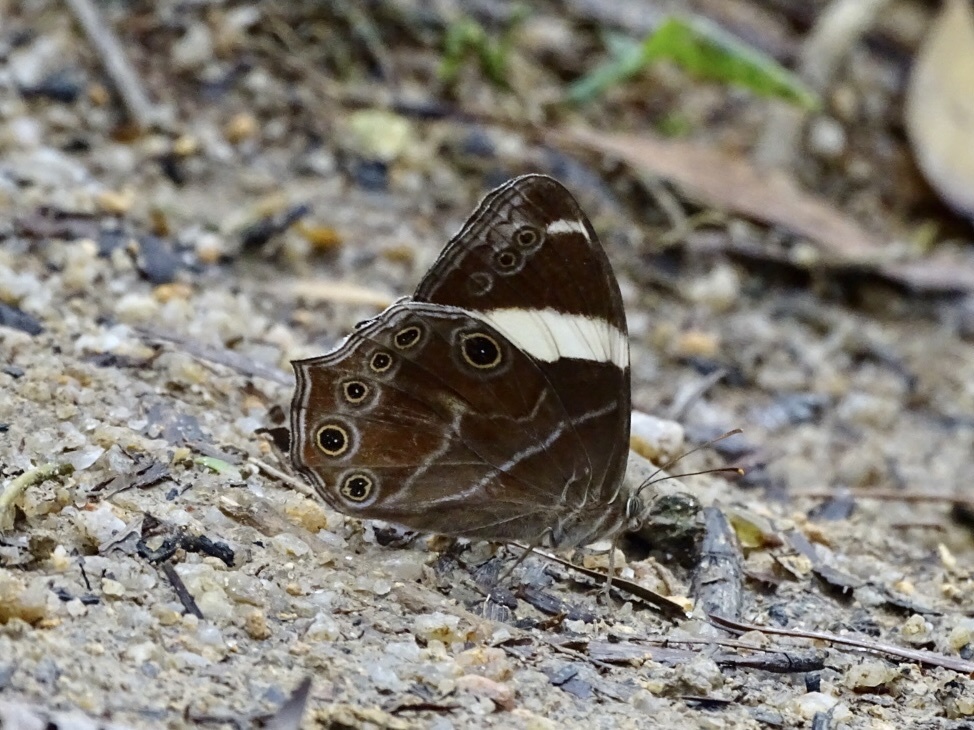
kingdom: Animalia
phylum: Arthropoda
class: Insecta
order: Lepidoptera
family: Nymphalidae
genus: Lethe
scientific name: Lethe confusa
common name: Banded treebrown
